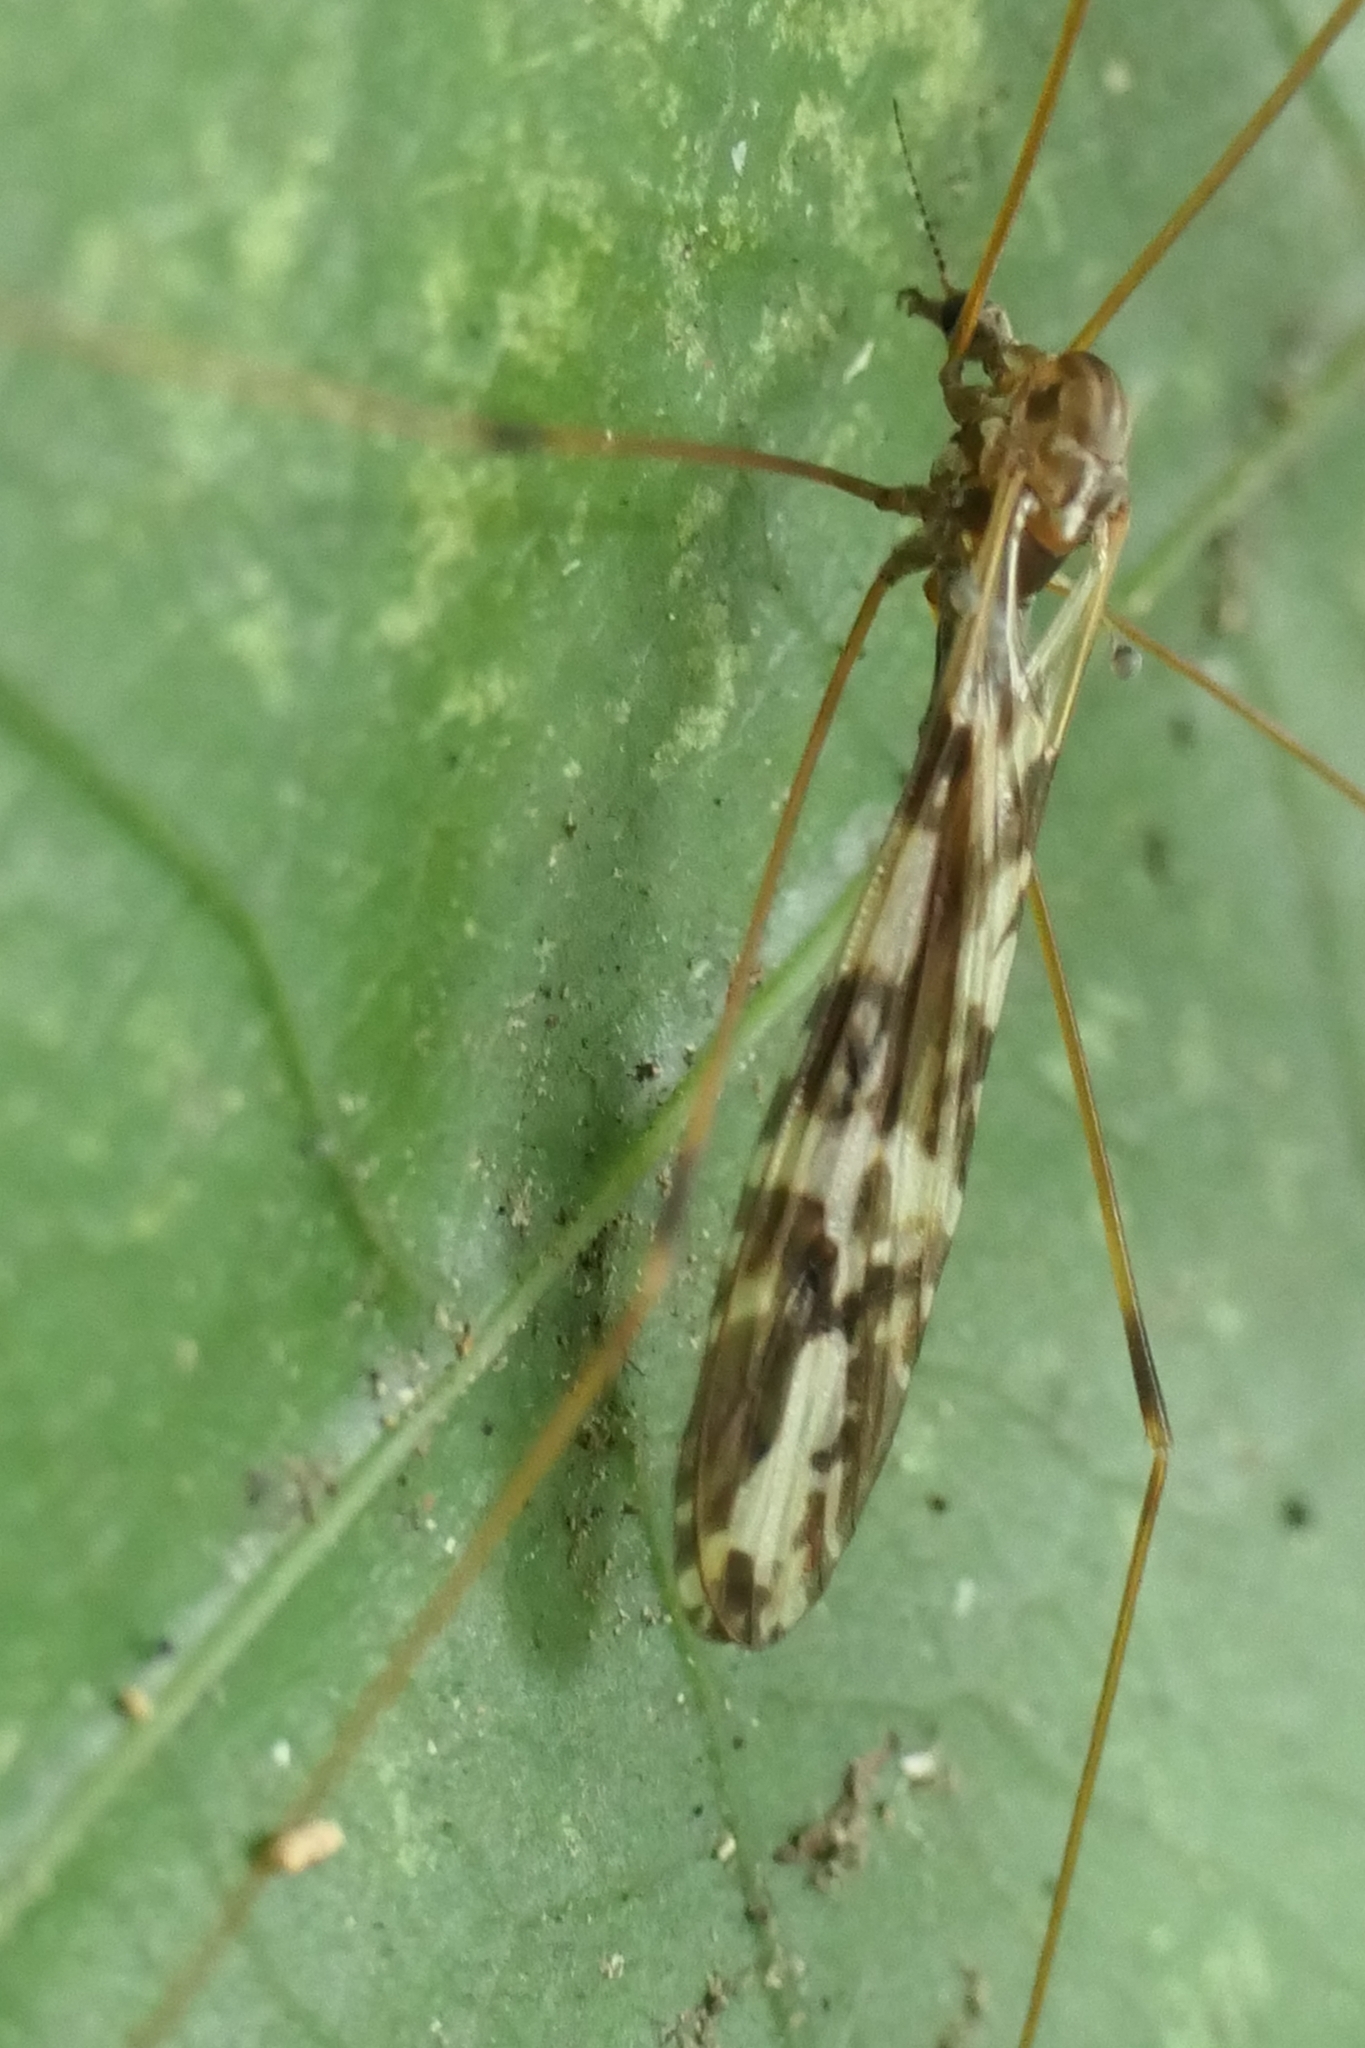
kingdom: Animalia
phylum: Arthropoda
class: Insecta
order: Diptera
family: Limoniidae
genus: Discobola
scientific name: Discobola dohrni
